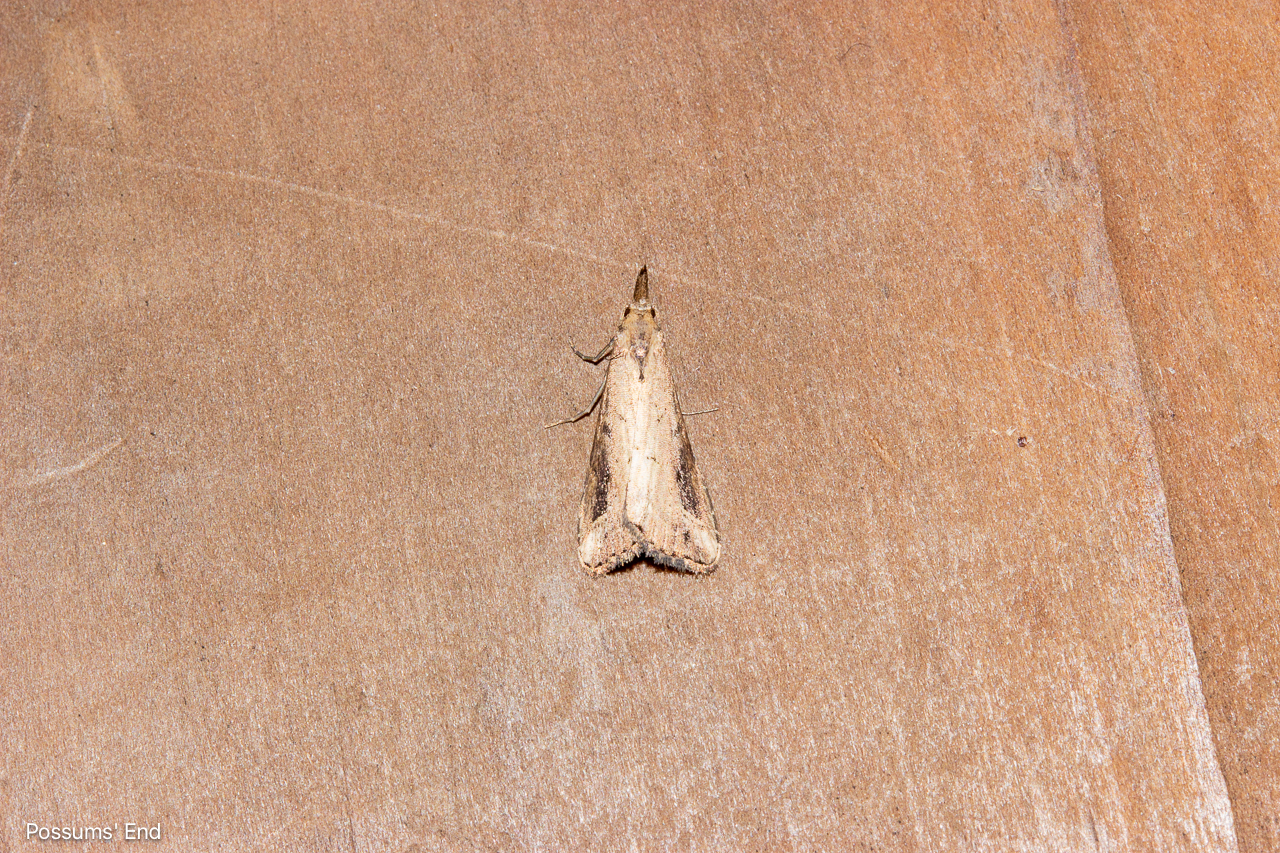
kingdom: Animalia
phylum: Arthropoda
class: Insecta
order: Lepidoptera
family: Erebidae
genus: Schrankia
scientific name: Schrankia costaestrigalis
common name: Pinion-streaked snout
